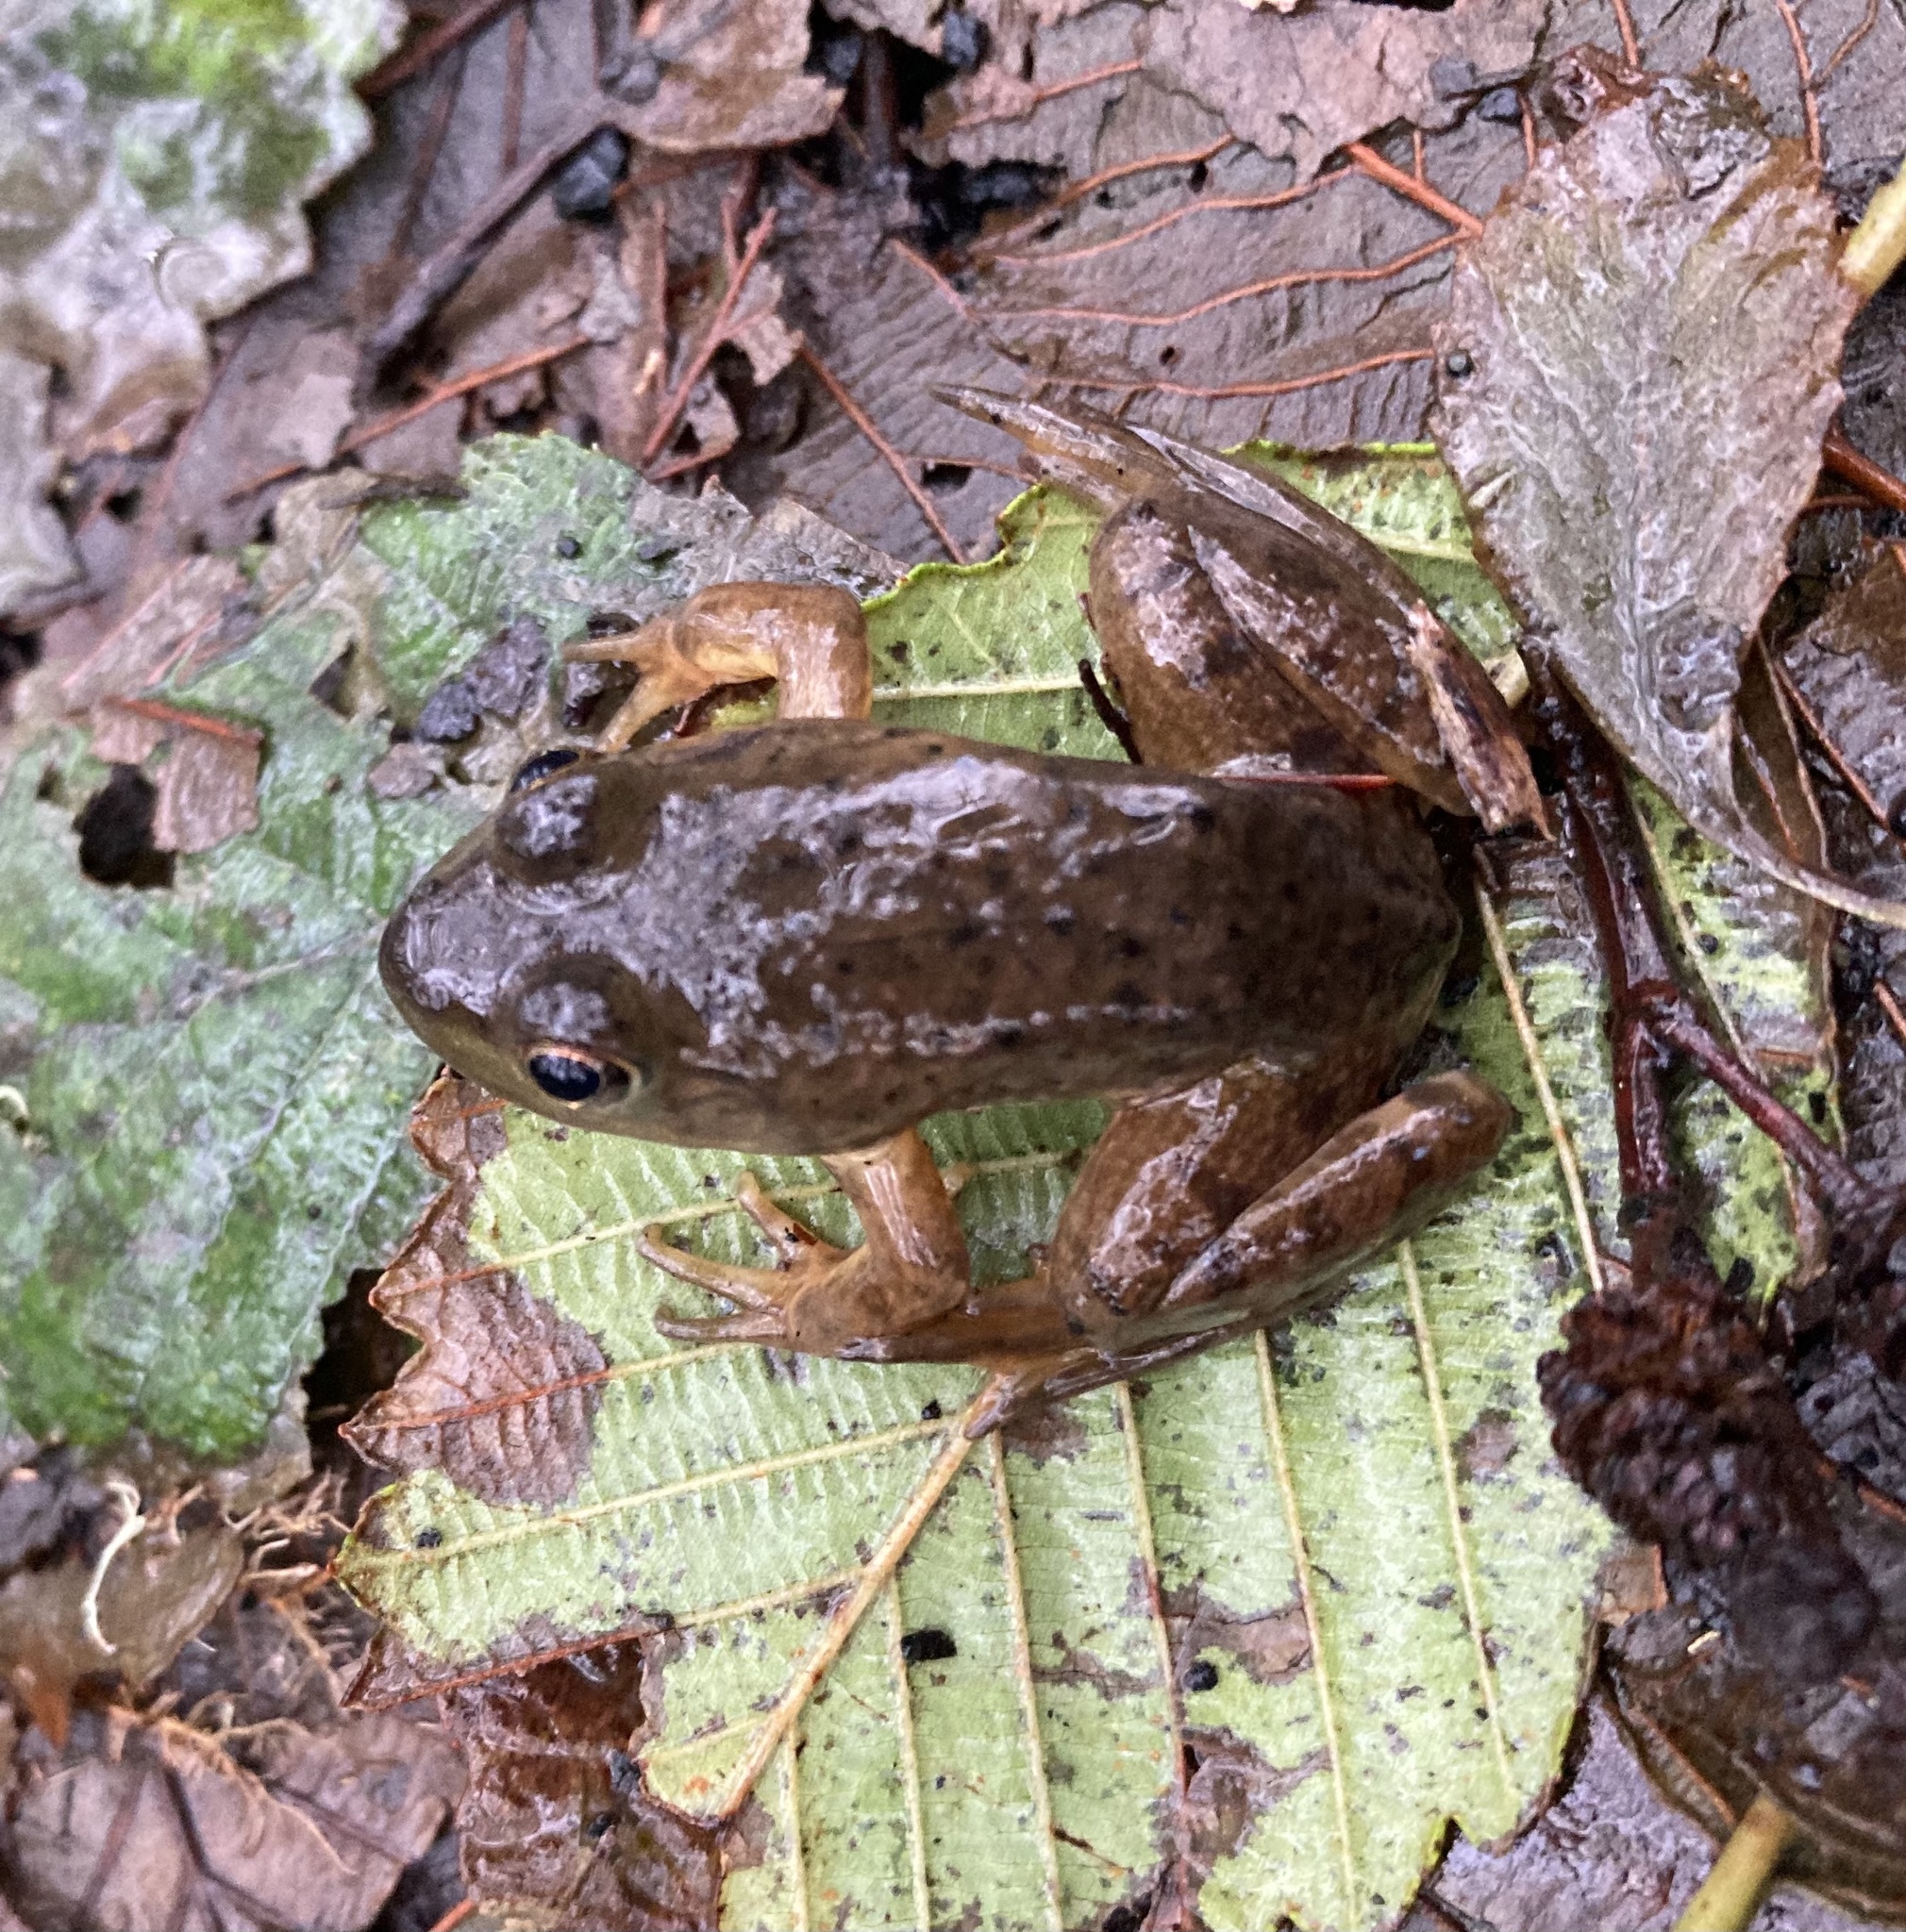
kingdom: Animalia
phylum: Chordata
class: Amphibia
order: Anura
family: Ranidae
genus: Lithobates
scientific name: Lithobates catesbeianus
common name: American bullfrog
